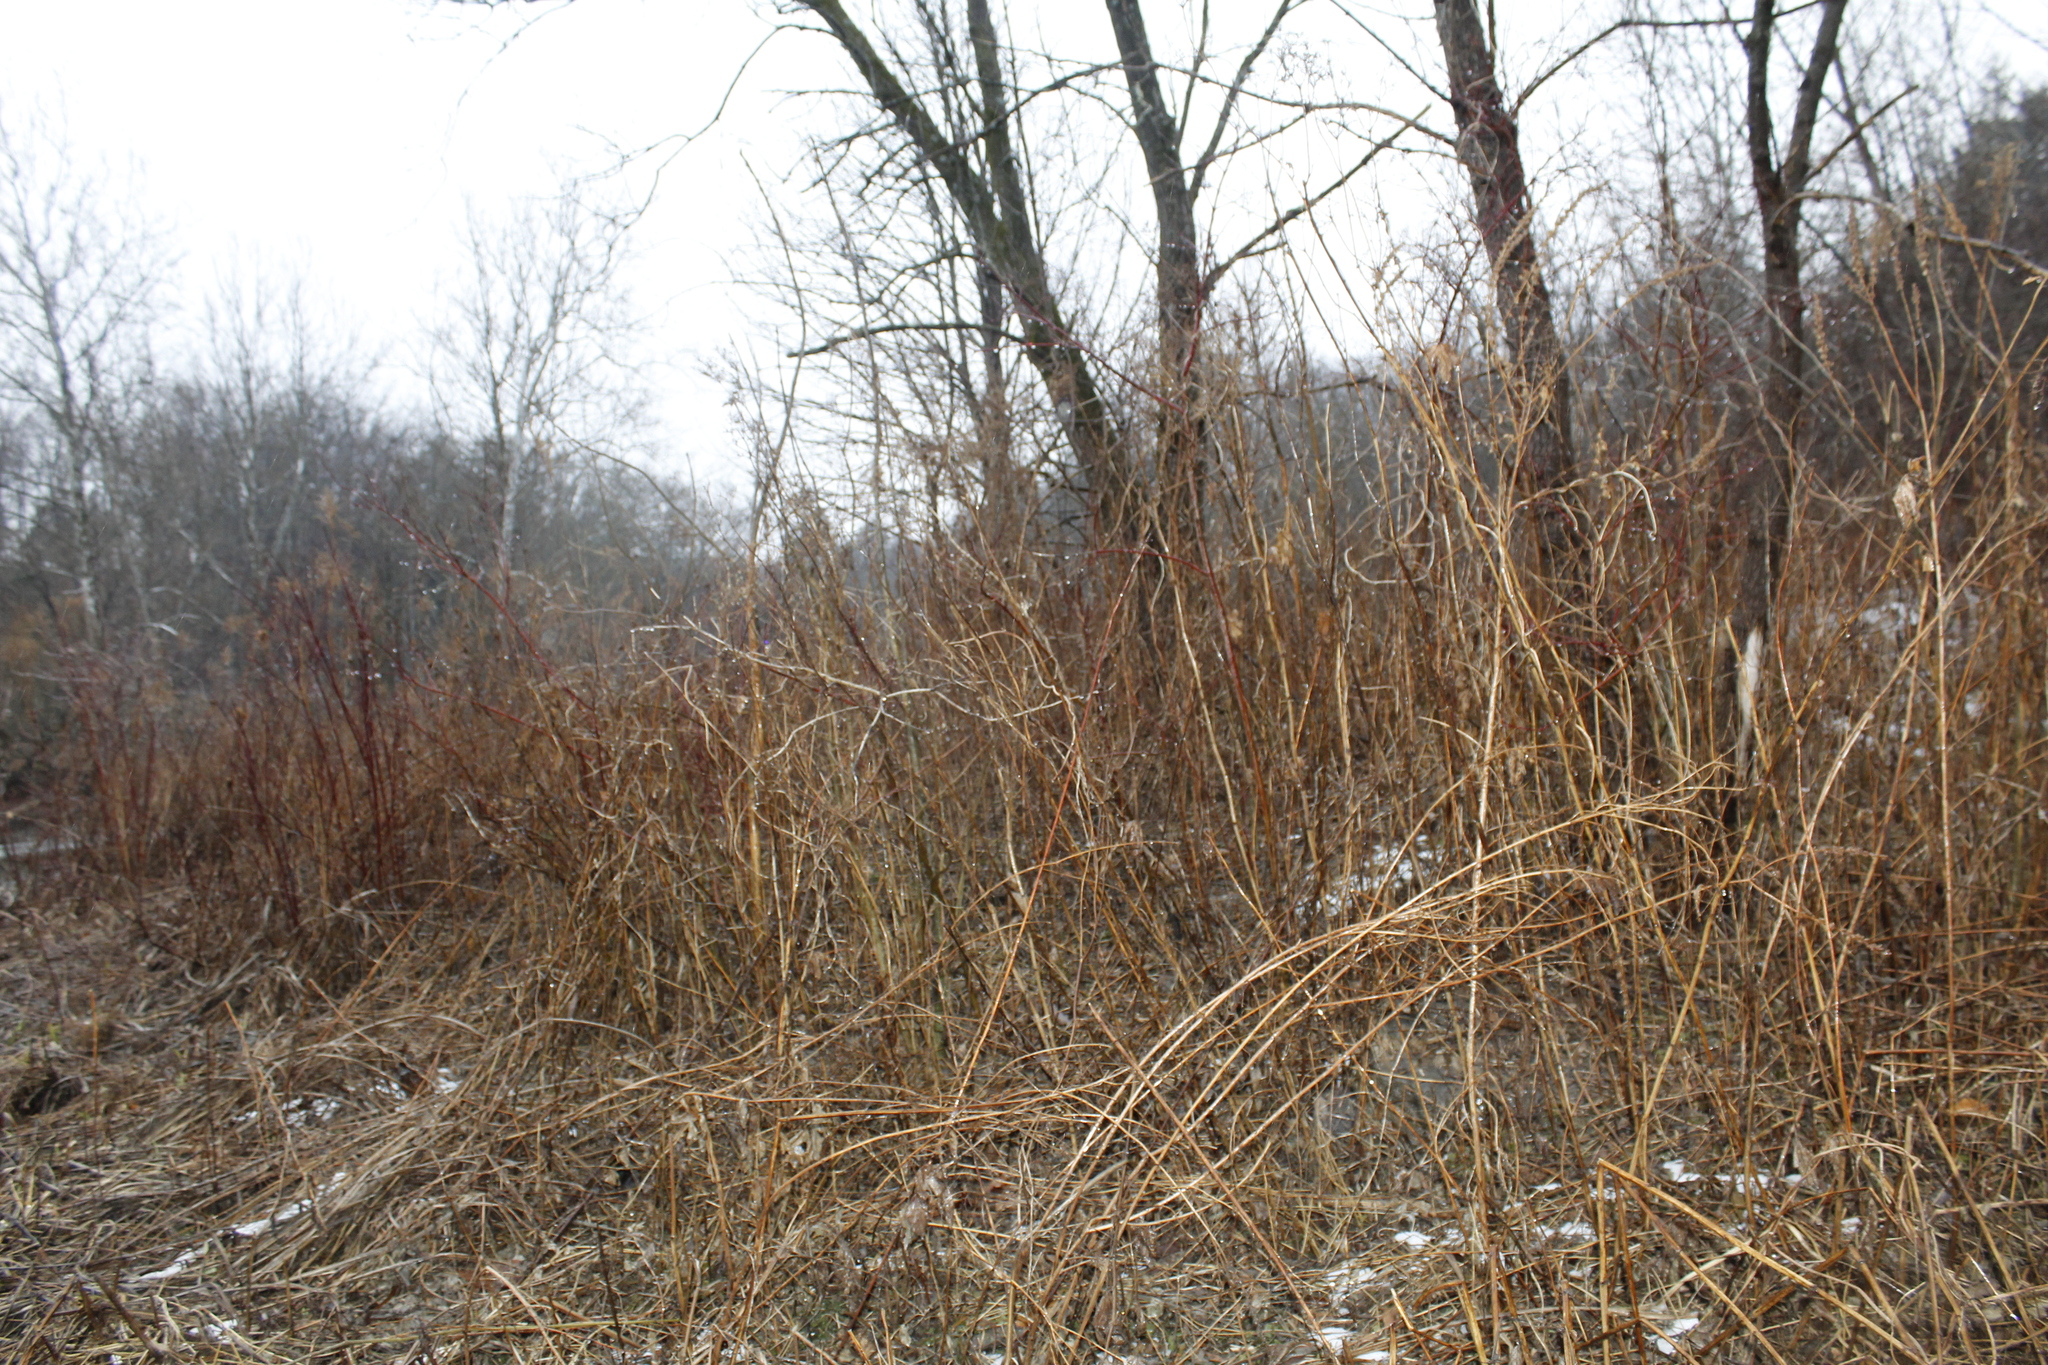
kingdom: Plantae
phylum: Tracheophyta
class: Magnoliopsida
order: Caryophyllales
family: Polygonaceae
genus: Reynoutria
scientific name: Reynoutria japonica
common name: Japanese knotweed
